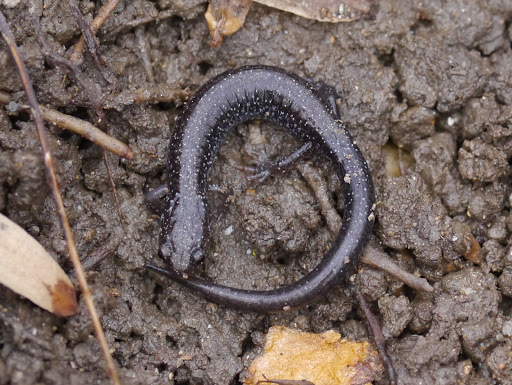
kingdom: Animalia
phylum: Chordata
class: Amphibia
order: Caudata
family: Plethodontidae
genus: Plethodon
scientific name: Plethodon cinereus
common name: Redback salamander
